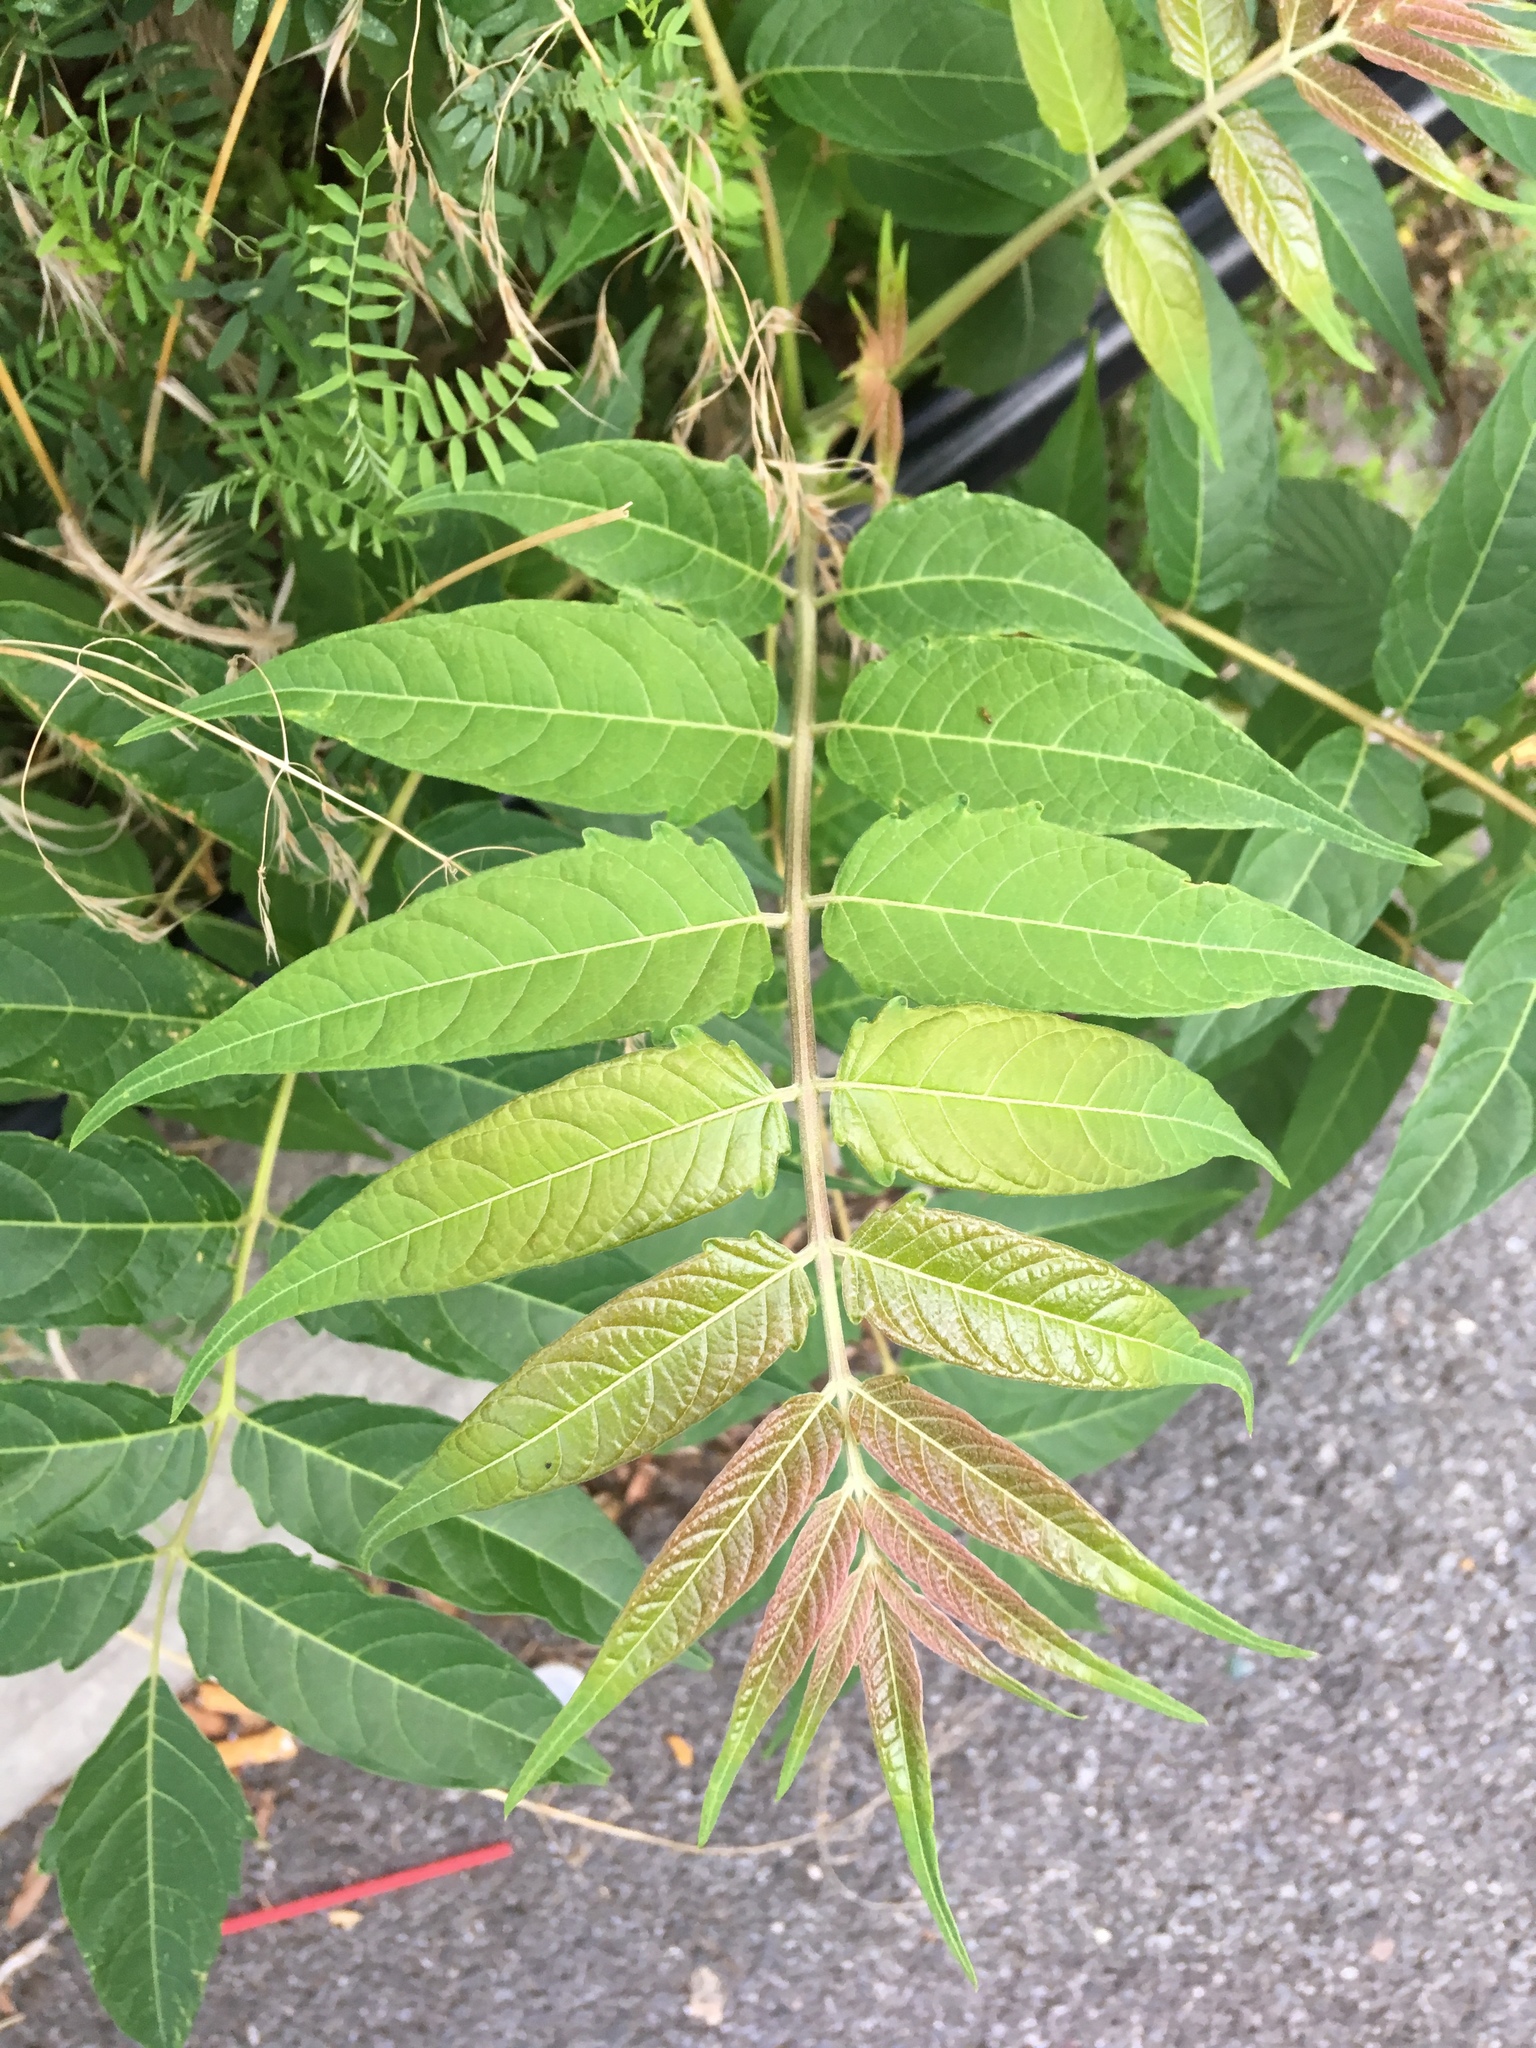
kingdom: Plantae
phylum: Tracheophyta
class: Magnoliopsida
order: Sapindales
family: Simaroubaceae
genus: Ailanthus
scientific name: Ailanthus altissima
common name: Tree-of-heaven
